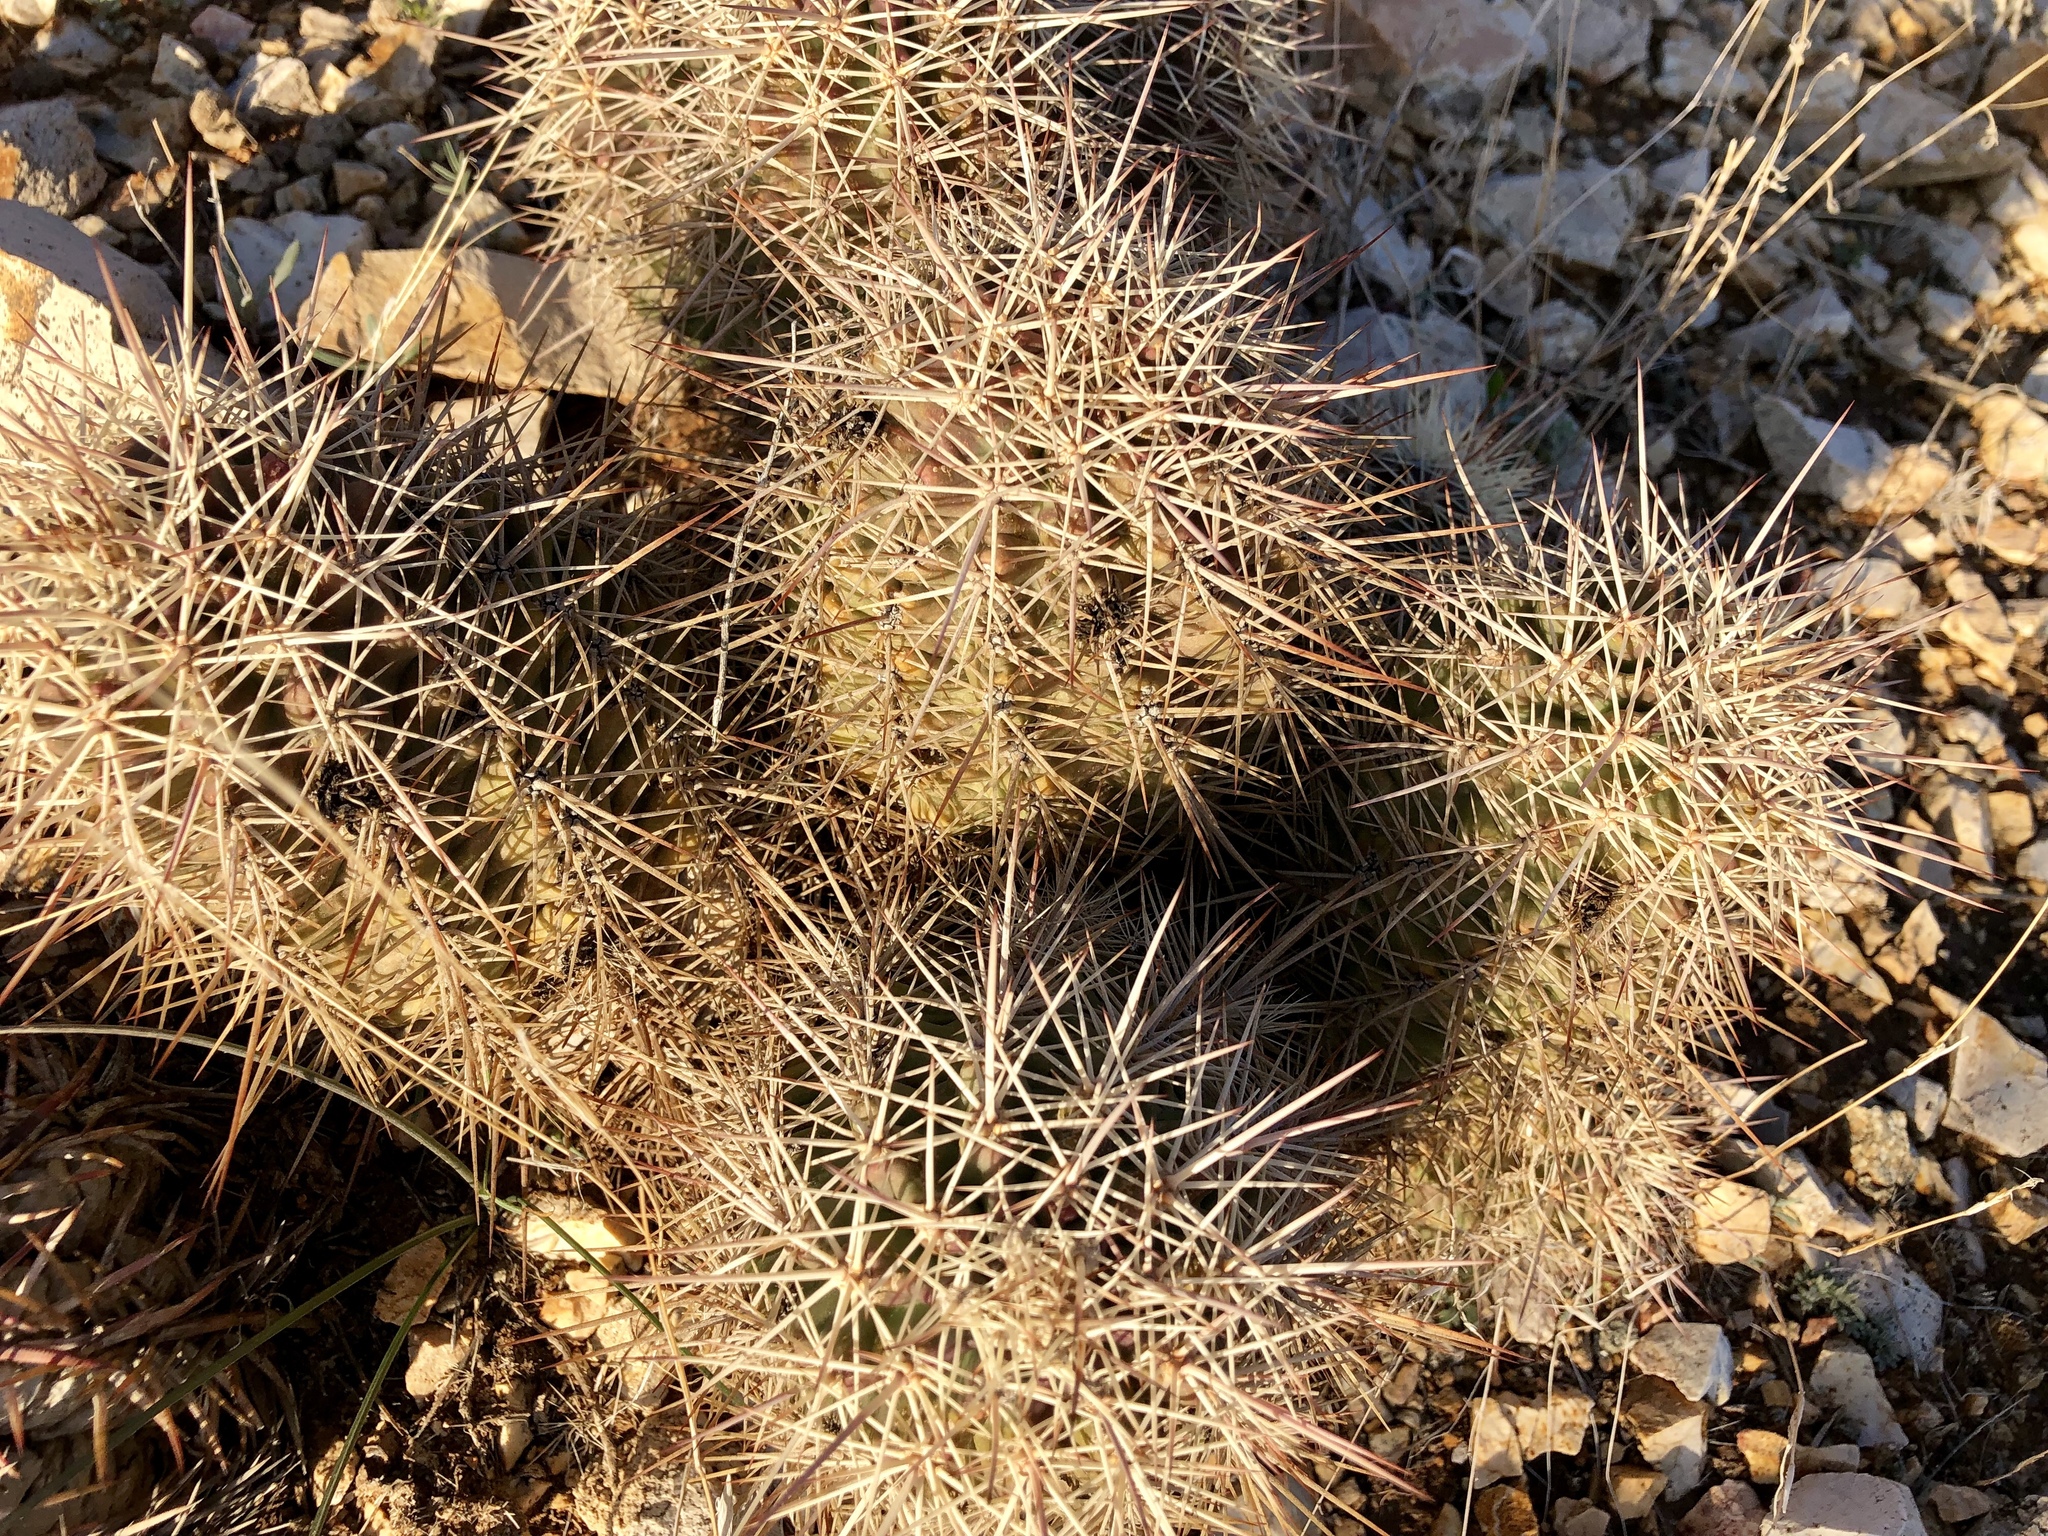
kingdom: Plantae
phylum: Tracheophyta
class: Magnoliopsida
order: Caryophyllales
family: Cactaceae
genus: Echinocereus
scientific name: Echinocereus coccineus
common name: Scarlet hedgehog cactus
